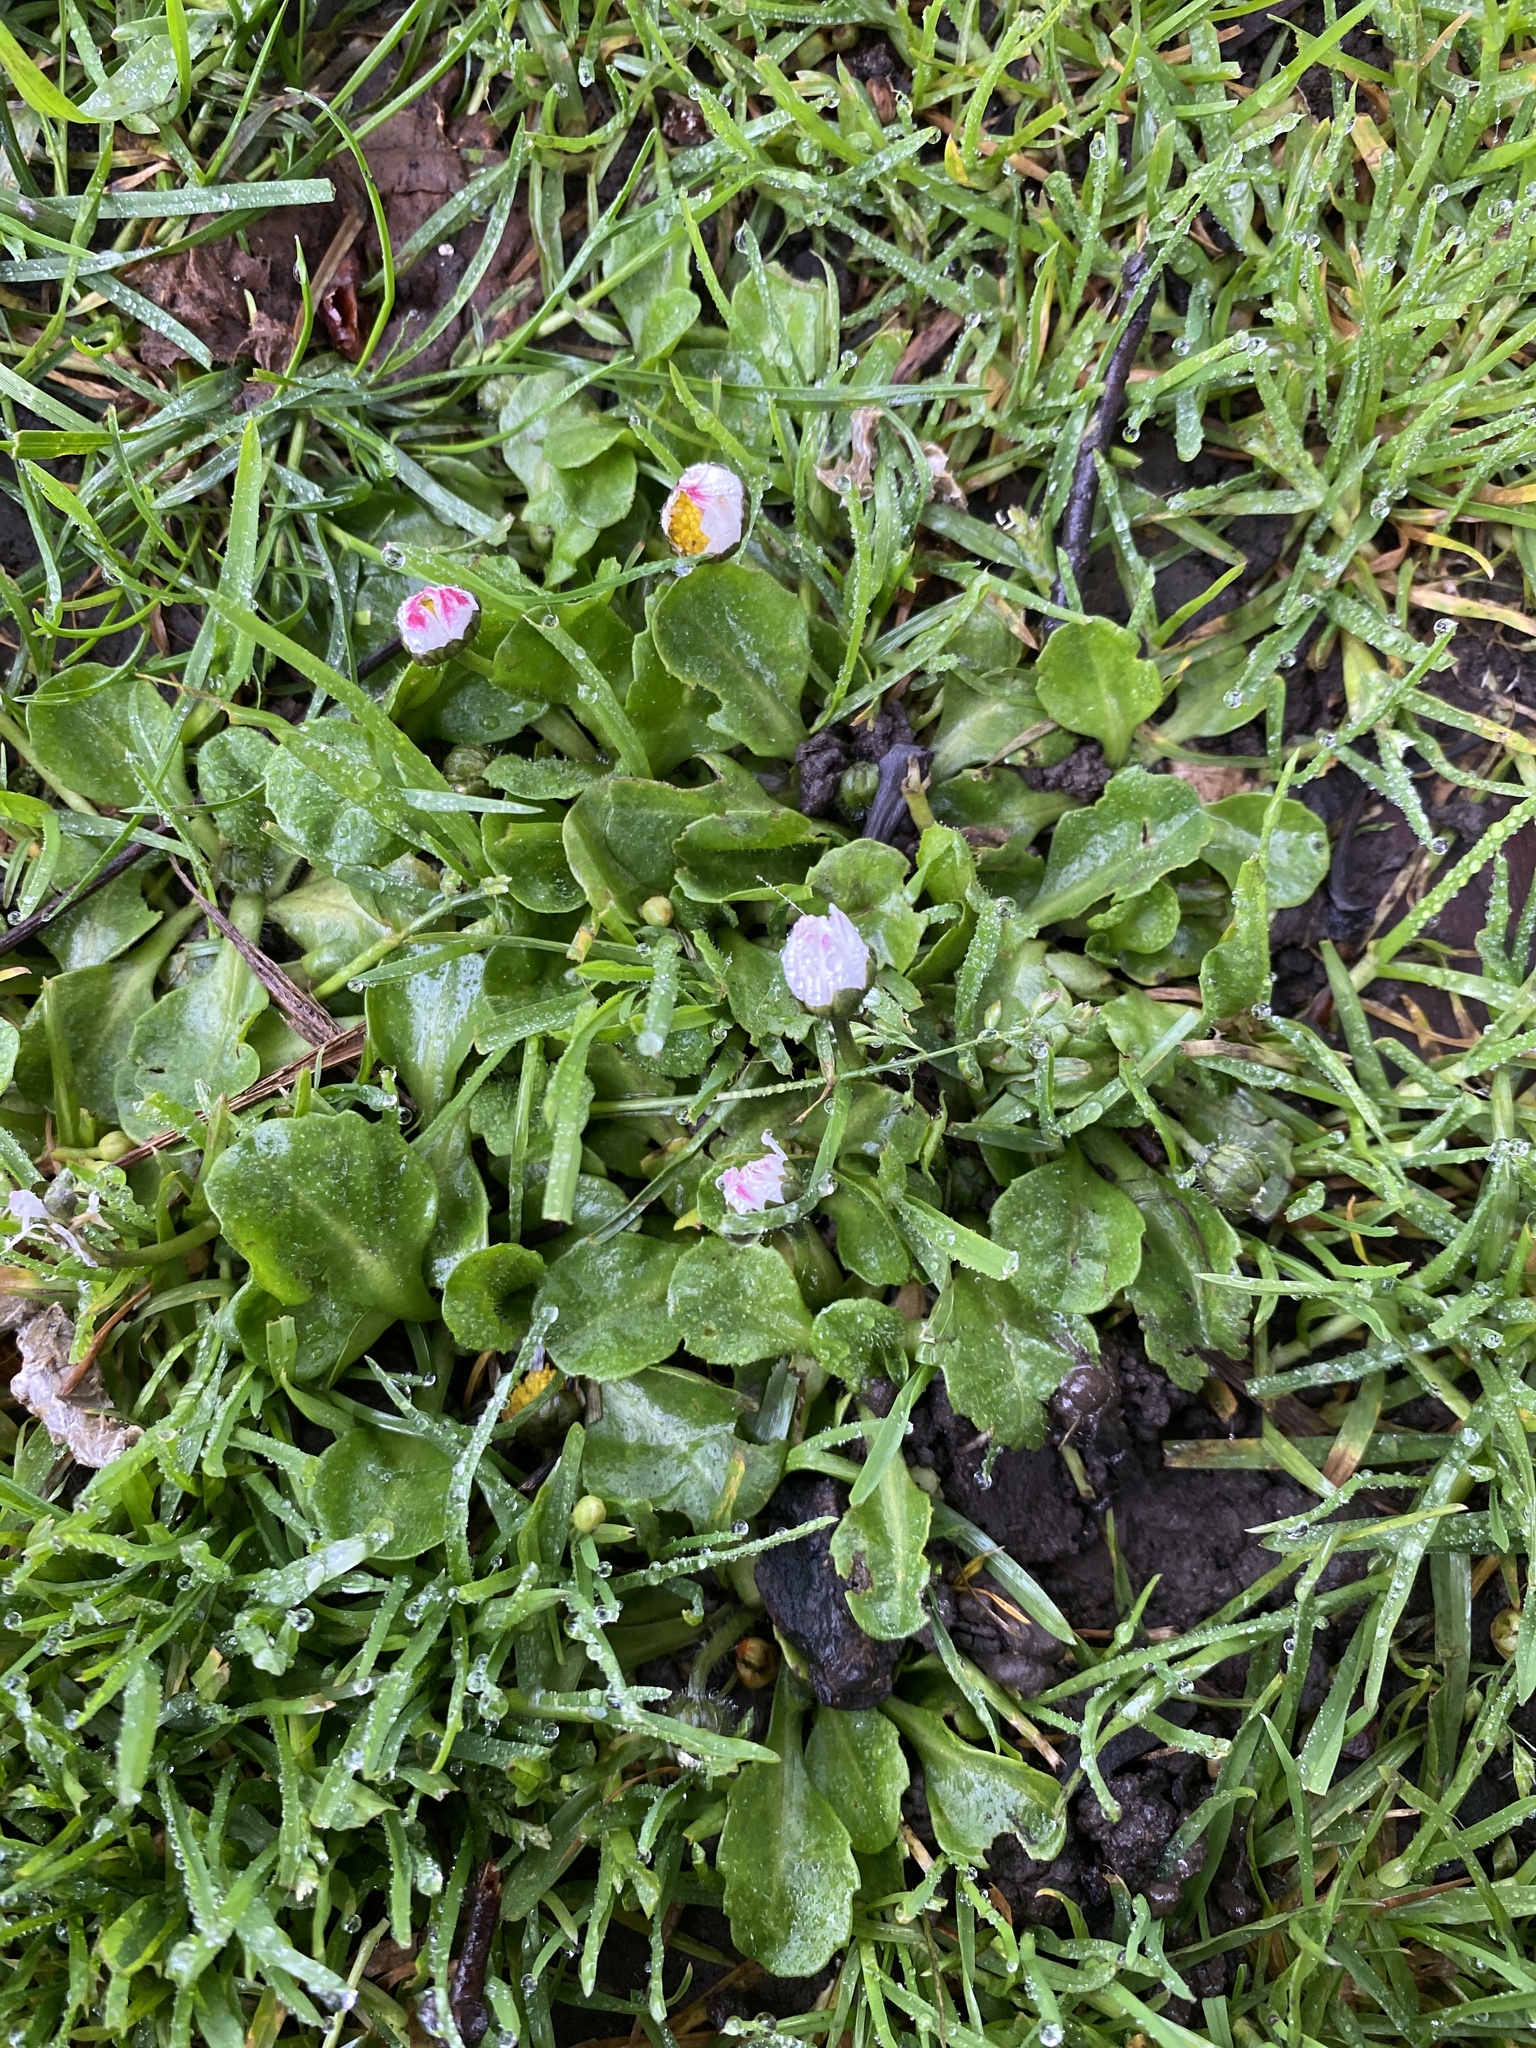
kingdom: Plantae
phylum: Tracheophyta
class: Magnoliopsida
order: Asterales
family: Asteraceae
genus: Bellis
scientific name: Bellis perennis
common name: Lawndaisy
